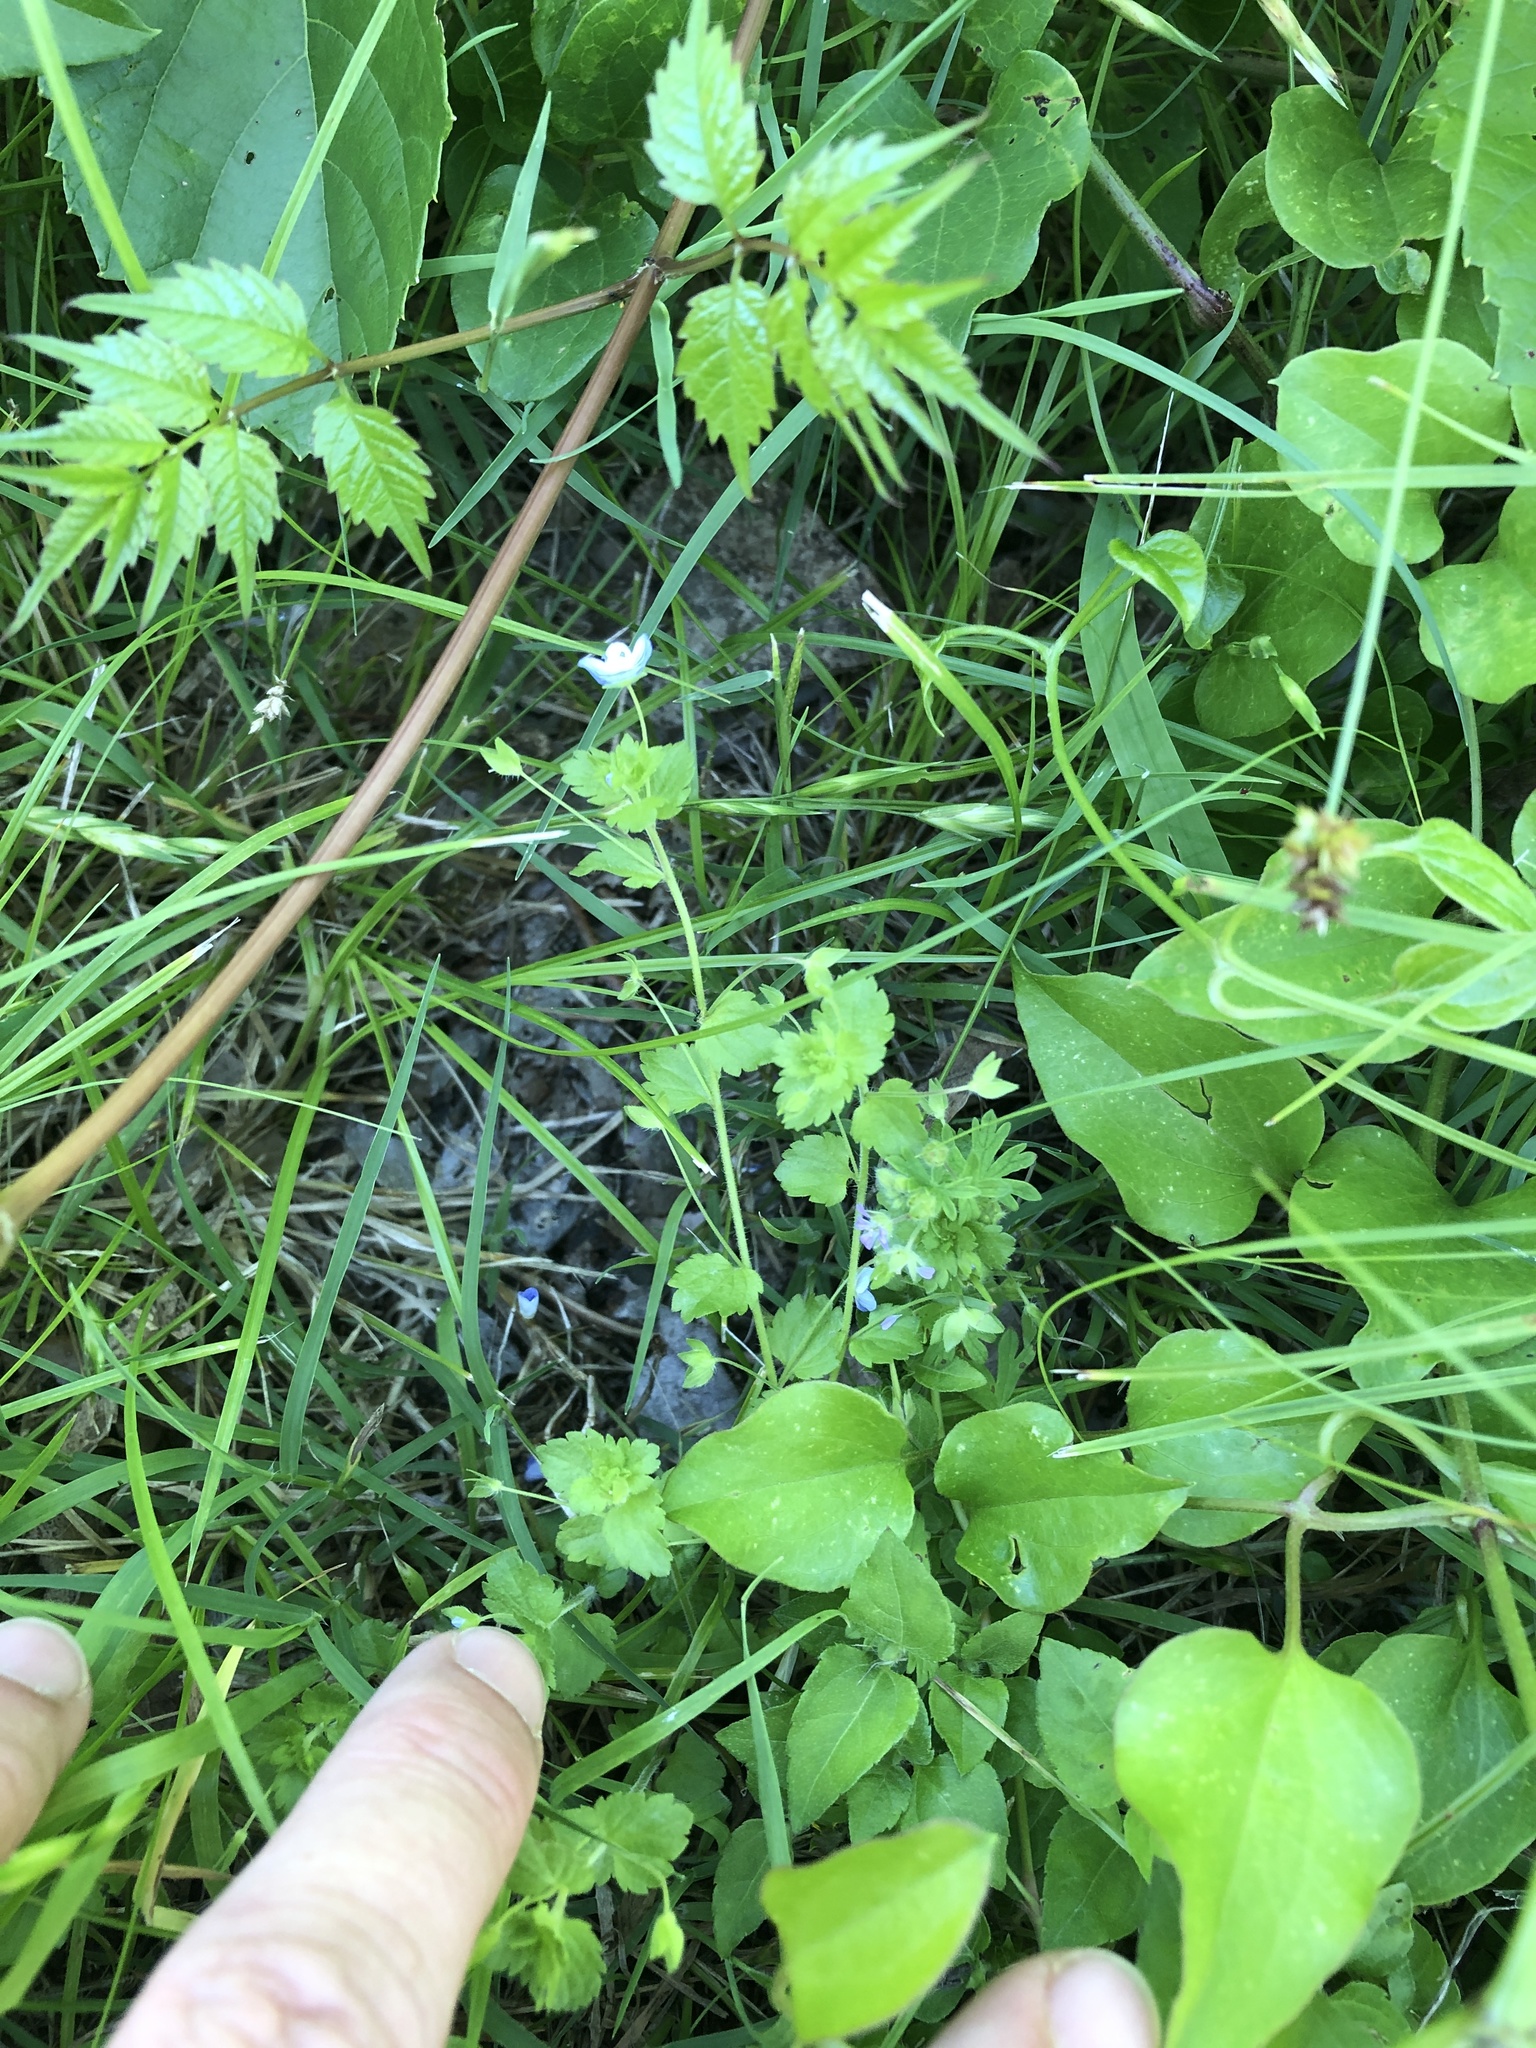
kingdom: Plantae
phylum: Tracheophyta
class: Magnoliopsida
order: Lamiales
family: Plantaginaceae
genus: Veronica
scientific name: Veronica persica
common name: Common field-speedwell
